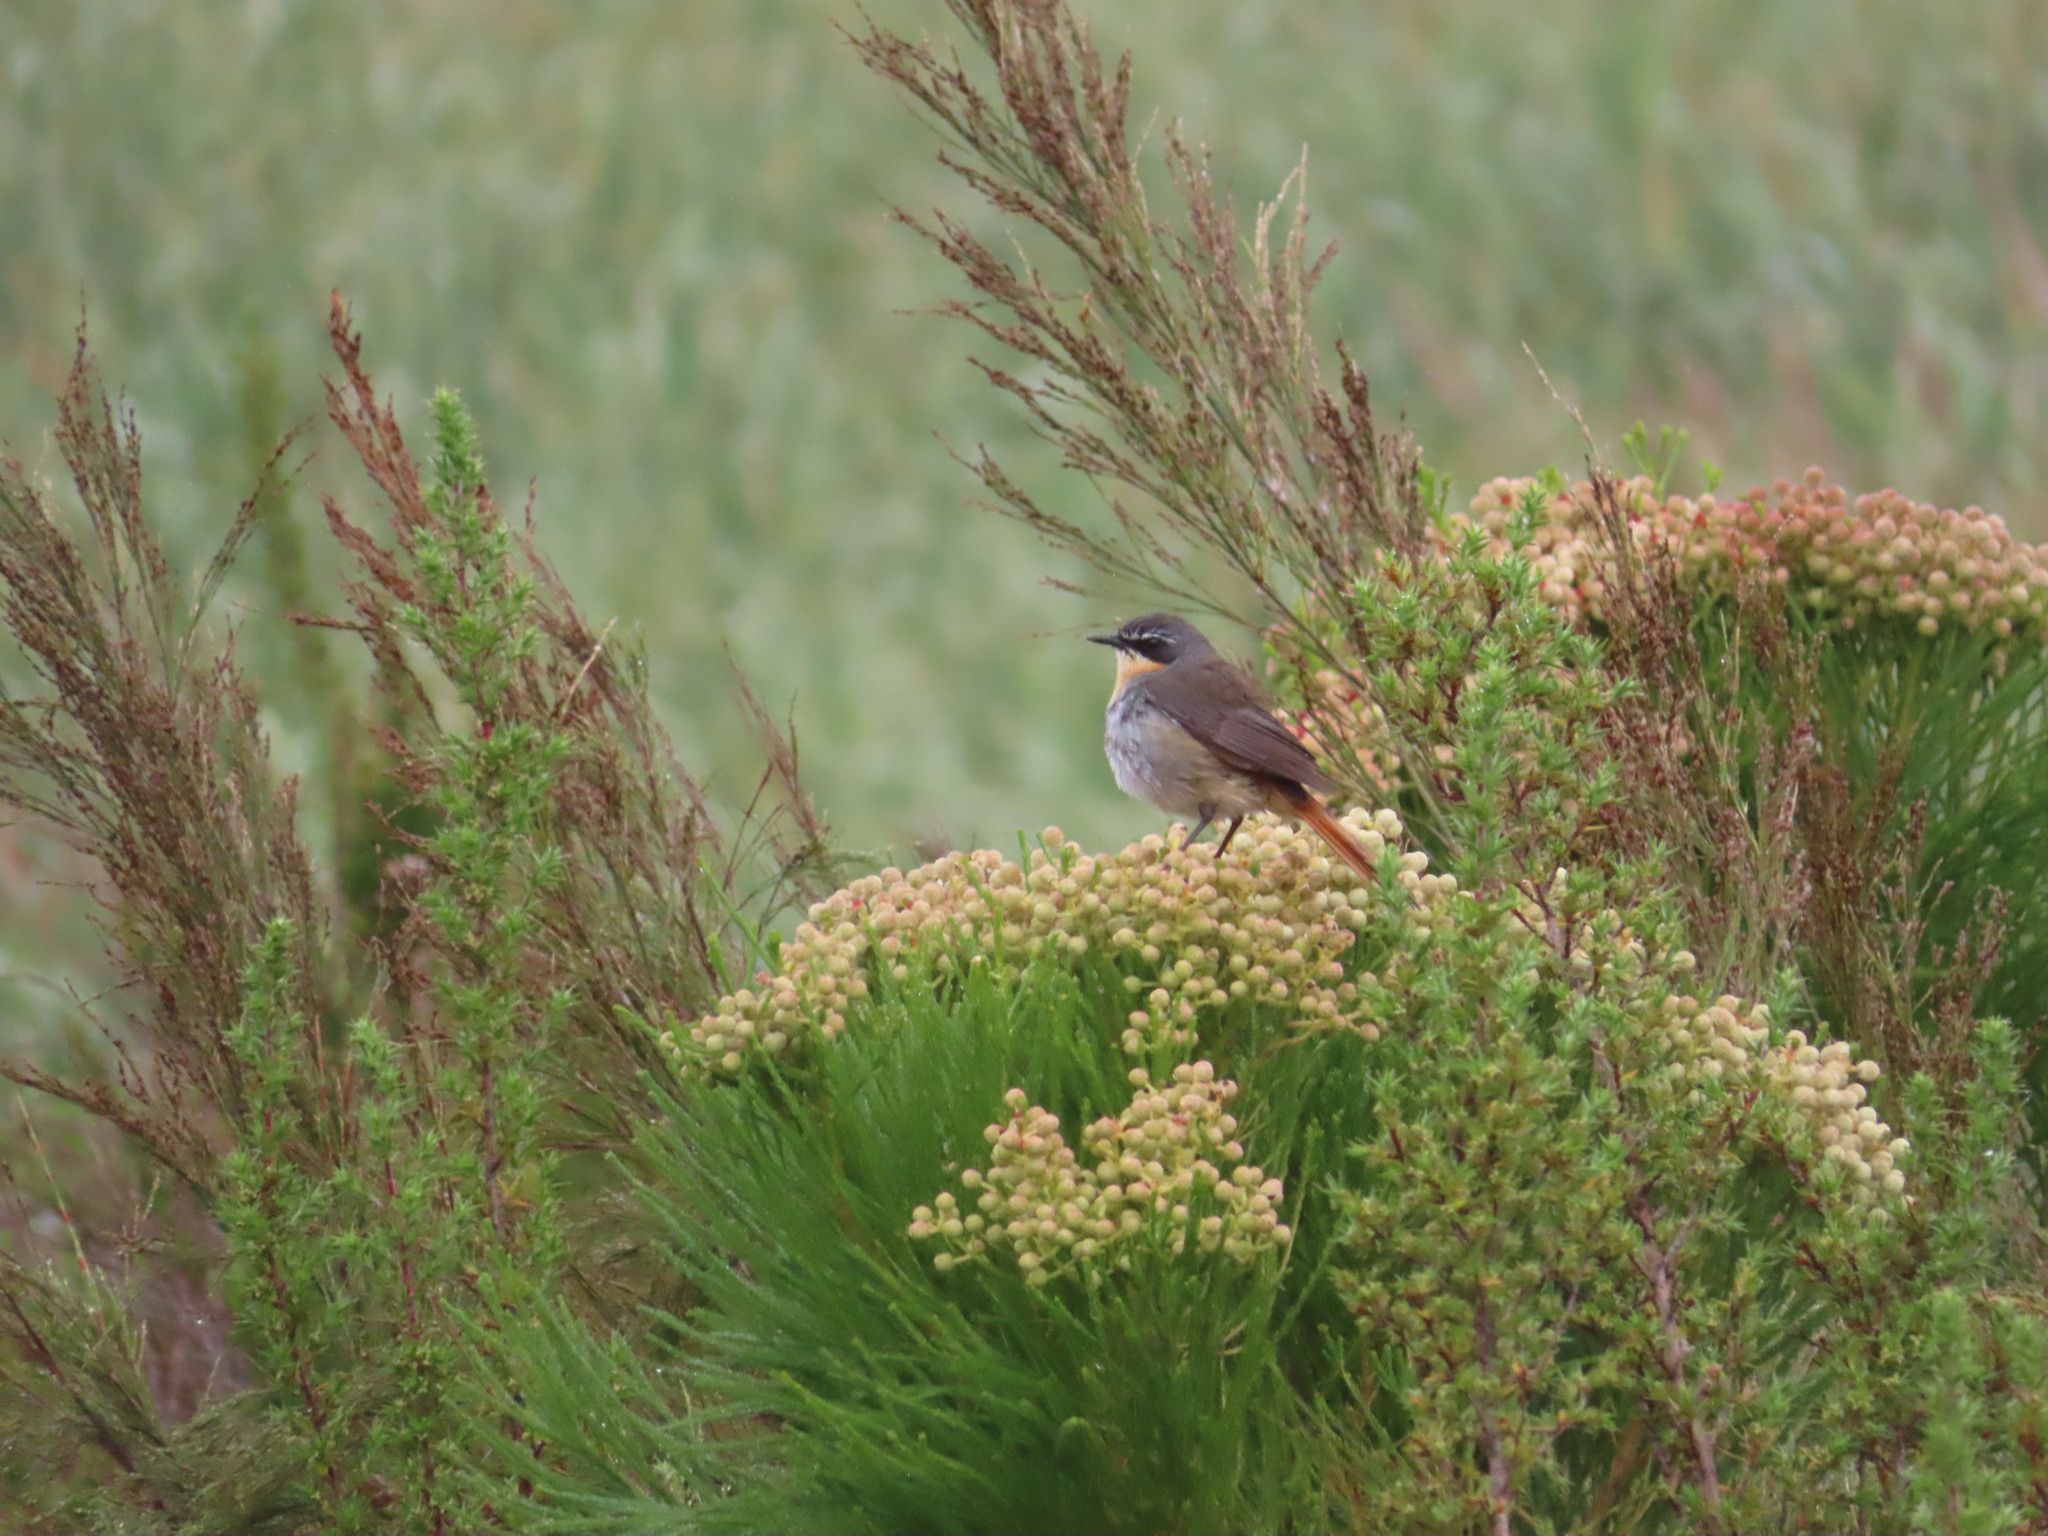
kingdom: Animalia
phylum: Chordata
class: Aves
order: Passeriformes
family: Muscicapidae
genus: Cossypha
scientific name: Cossypha caffra
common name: Cape robin-chat
